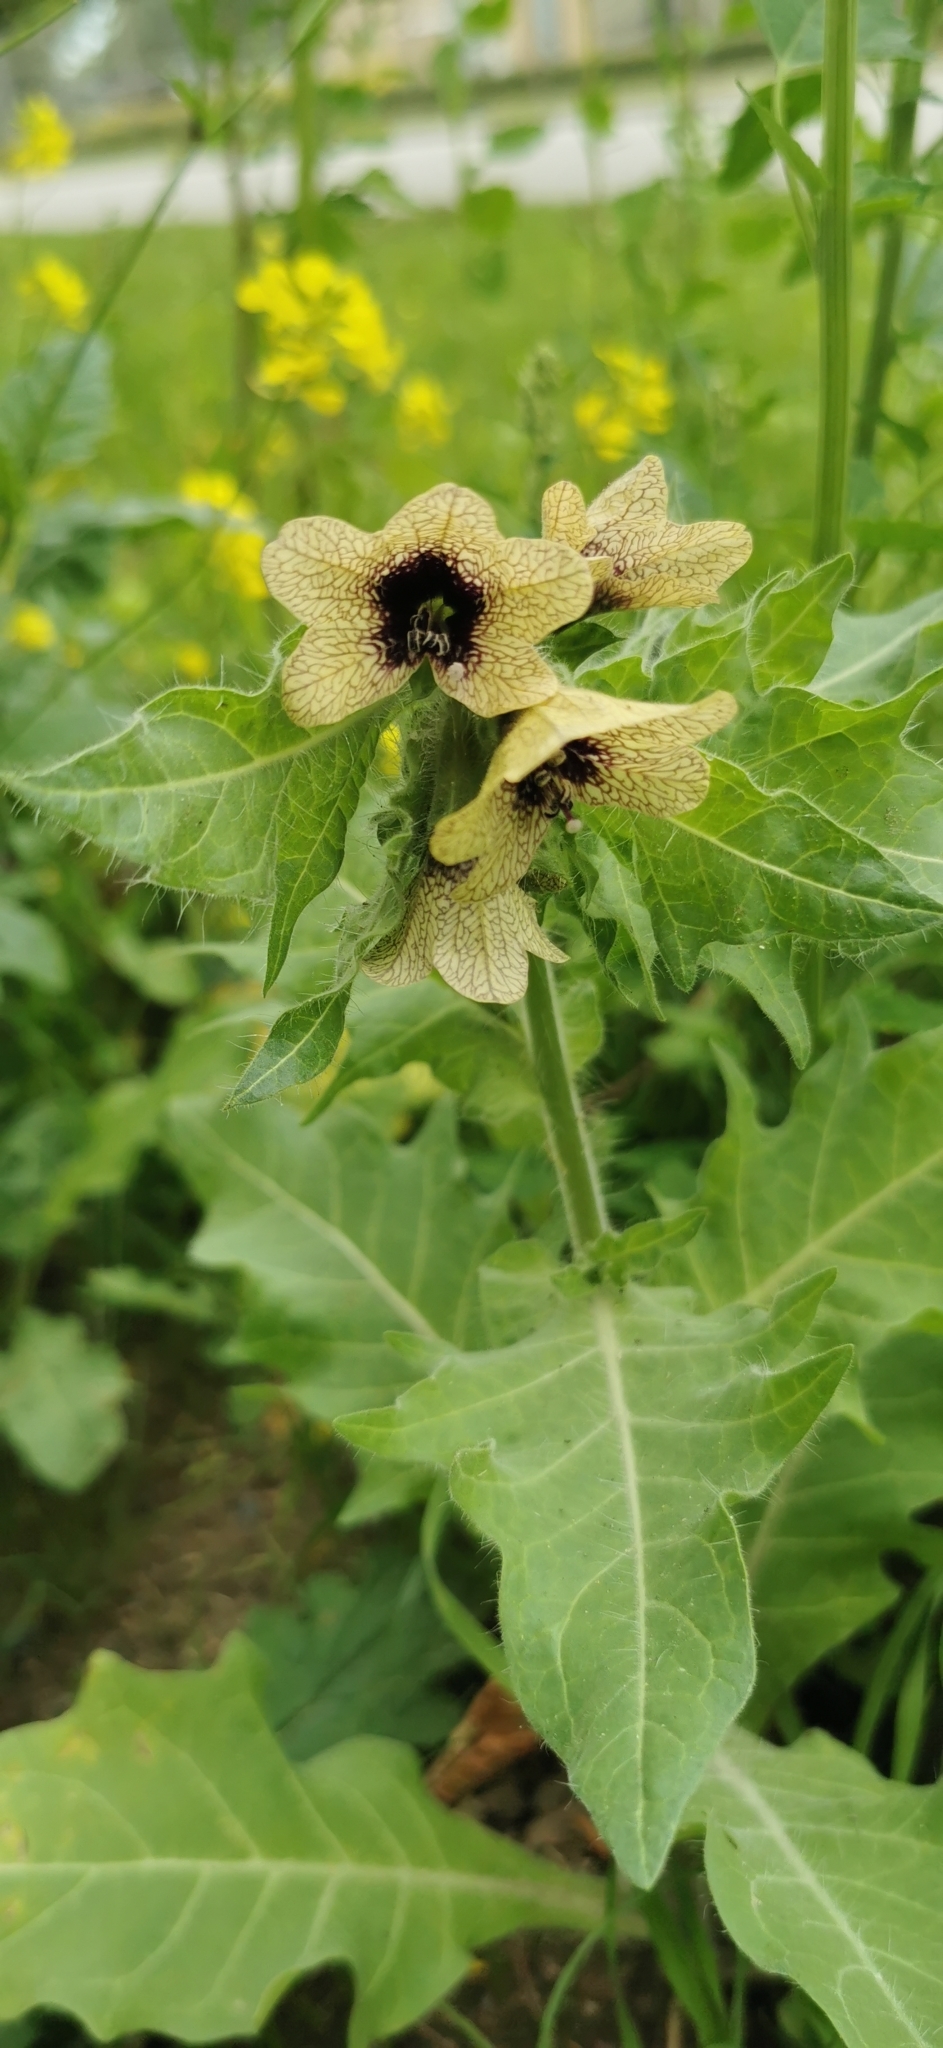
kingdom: Plantae
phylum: Tracheophyta
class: Magnoliopsida
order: Solanales
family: Solanaceae
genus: Hyoscyamus
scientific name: Hyoscyamus niger
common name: Henbane
